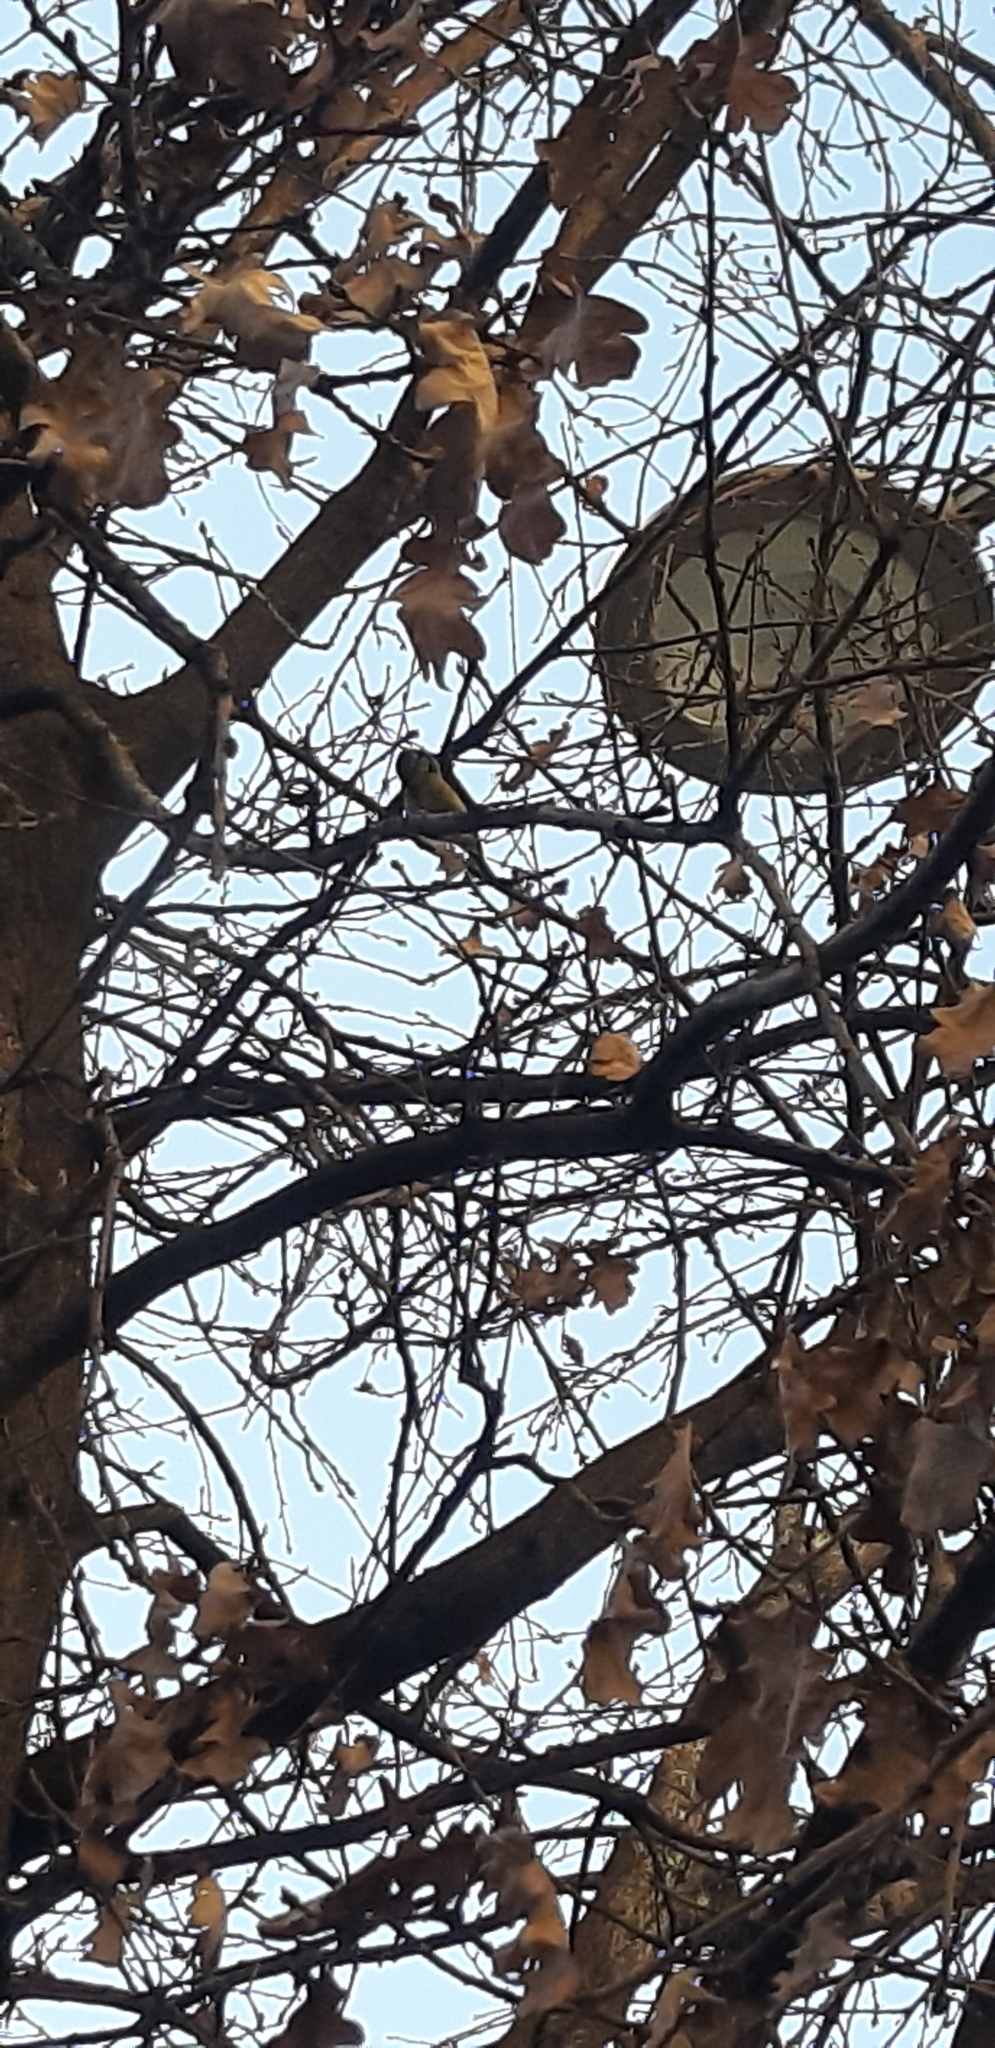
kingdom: Animalia
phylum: Chordata
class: Aves
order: Passeriformes
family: Paridae
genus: Cyanistes
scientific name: Cyanistes caeruleus
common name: Eurasian blue tit
